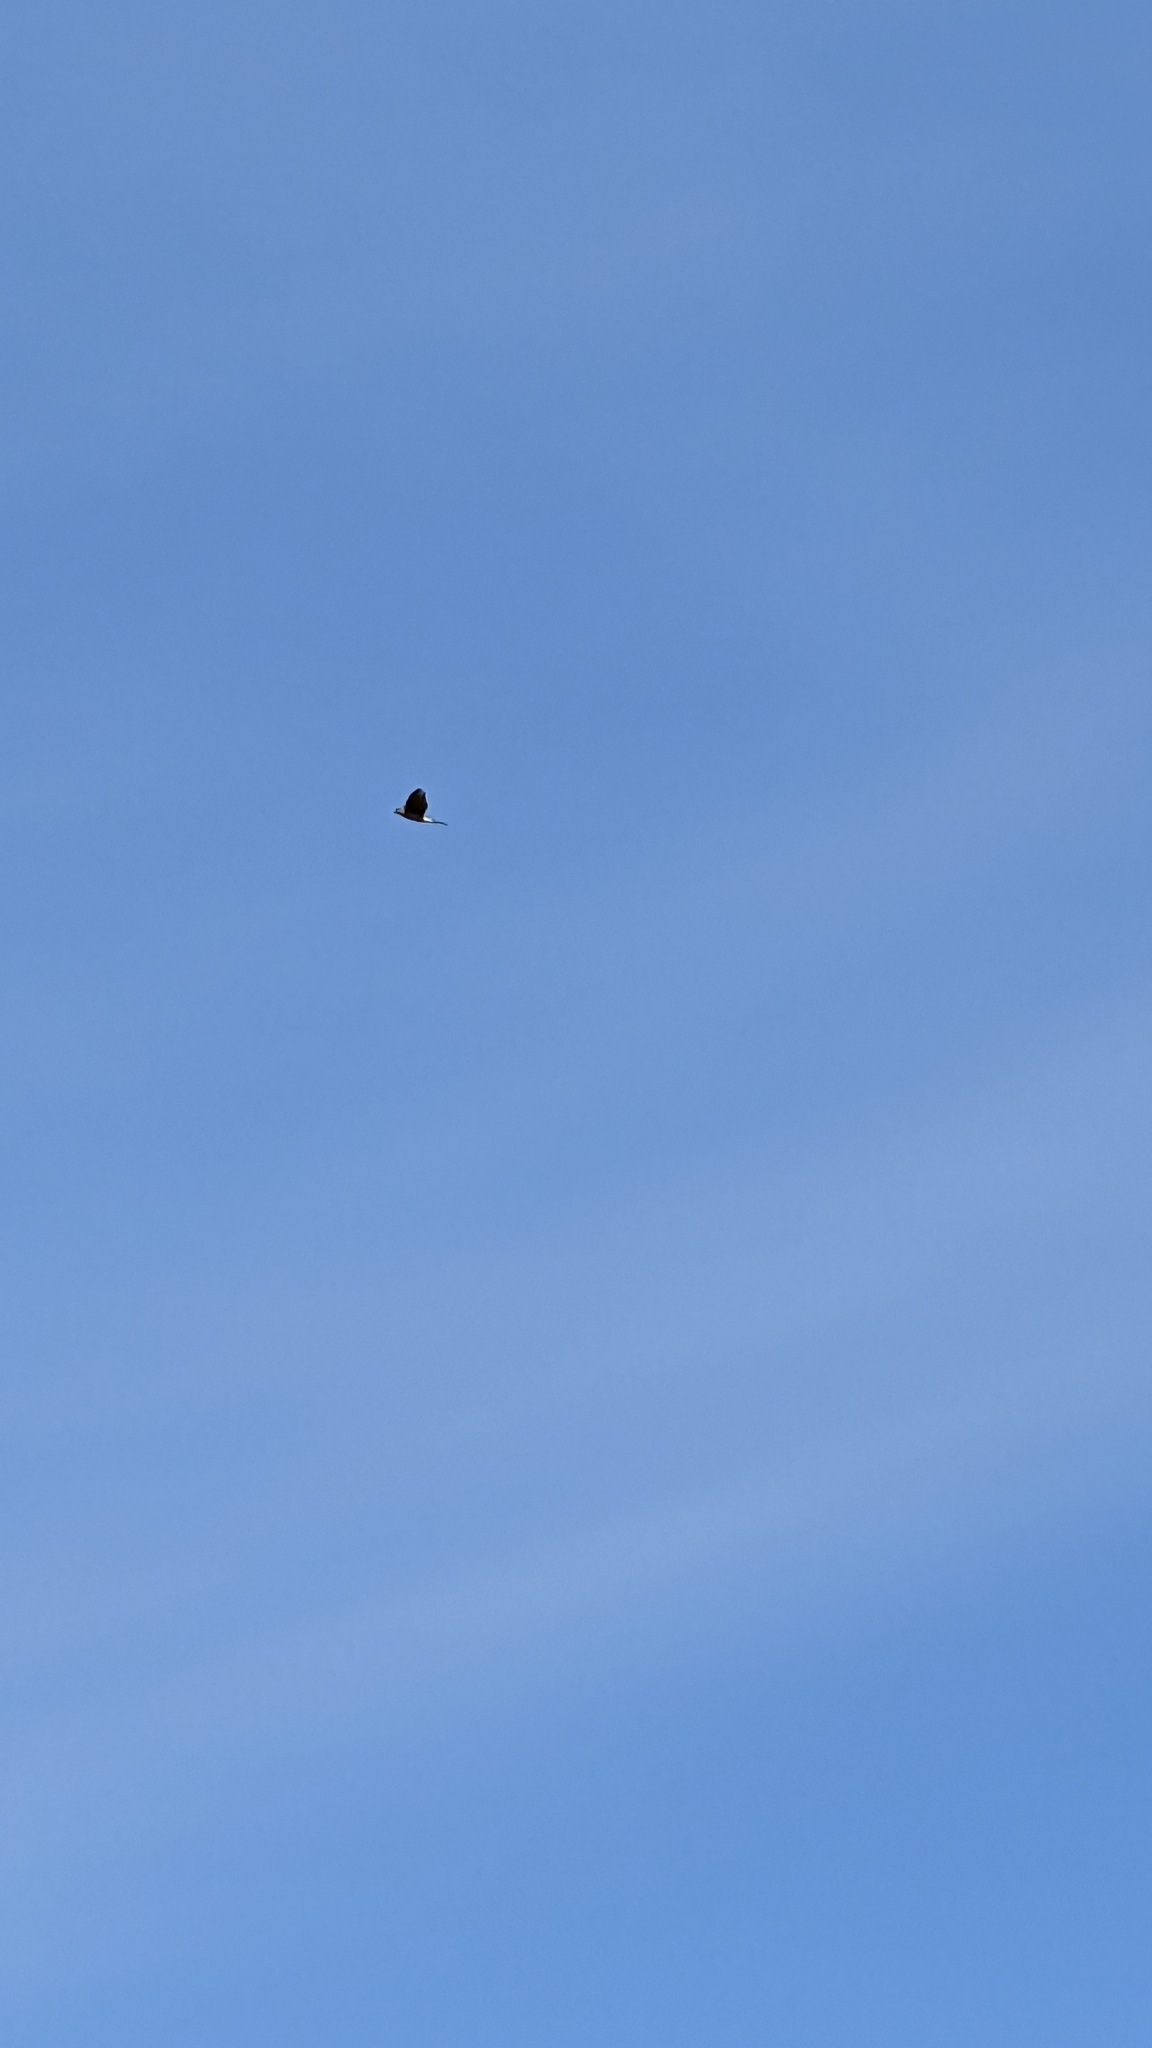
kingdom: Animalia
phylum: Chordata
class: Aves
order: Accipitriformes
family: Accipitridae
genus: Accipiter
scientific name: Accipiter cooperii
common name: Cooper's hawk
